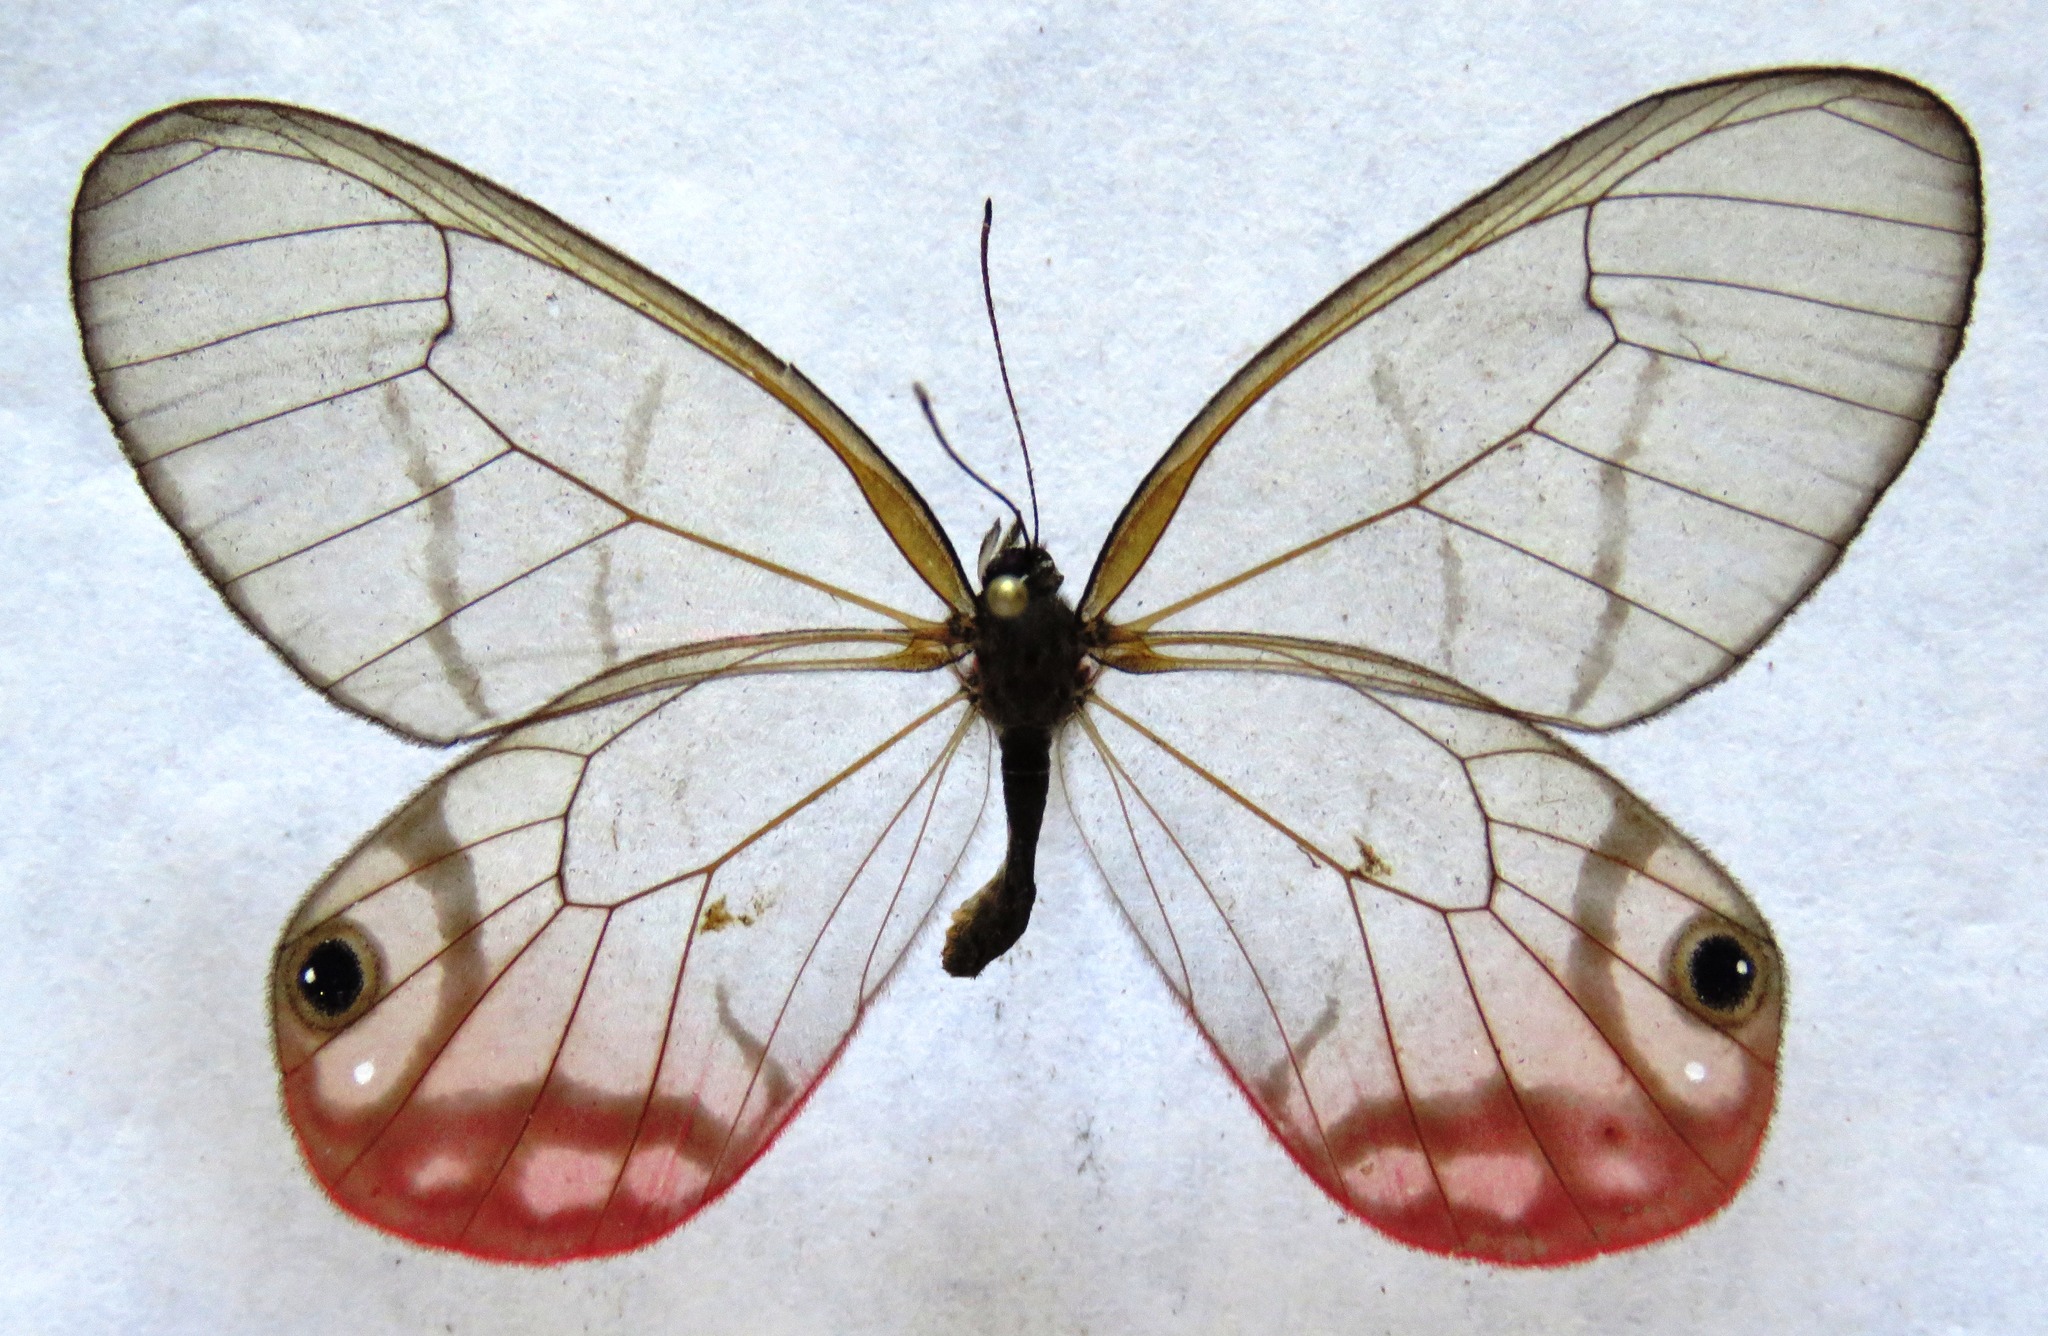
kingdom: Animalia
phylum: Arthropoda
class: Insecta
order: Lepidoptera
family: Nymphalidae
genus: Cithaerias
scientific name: Cithaerias pireta
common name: Rusted clearwing-satyr
